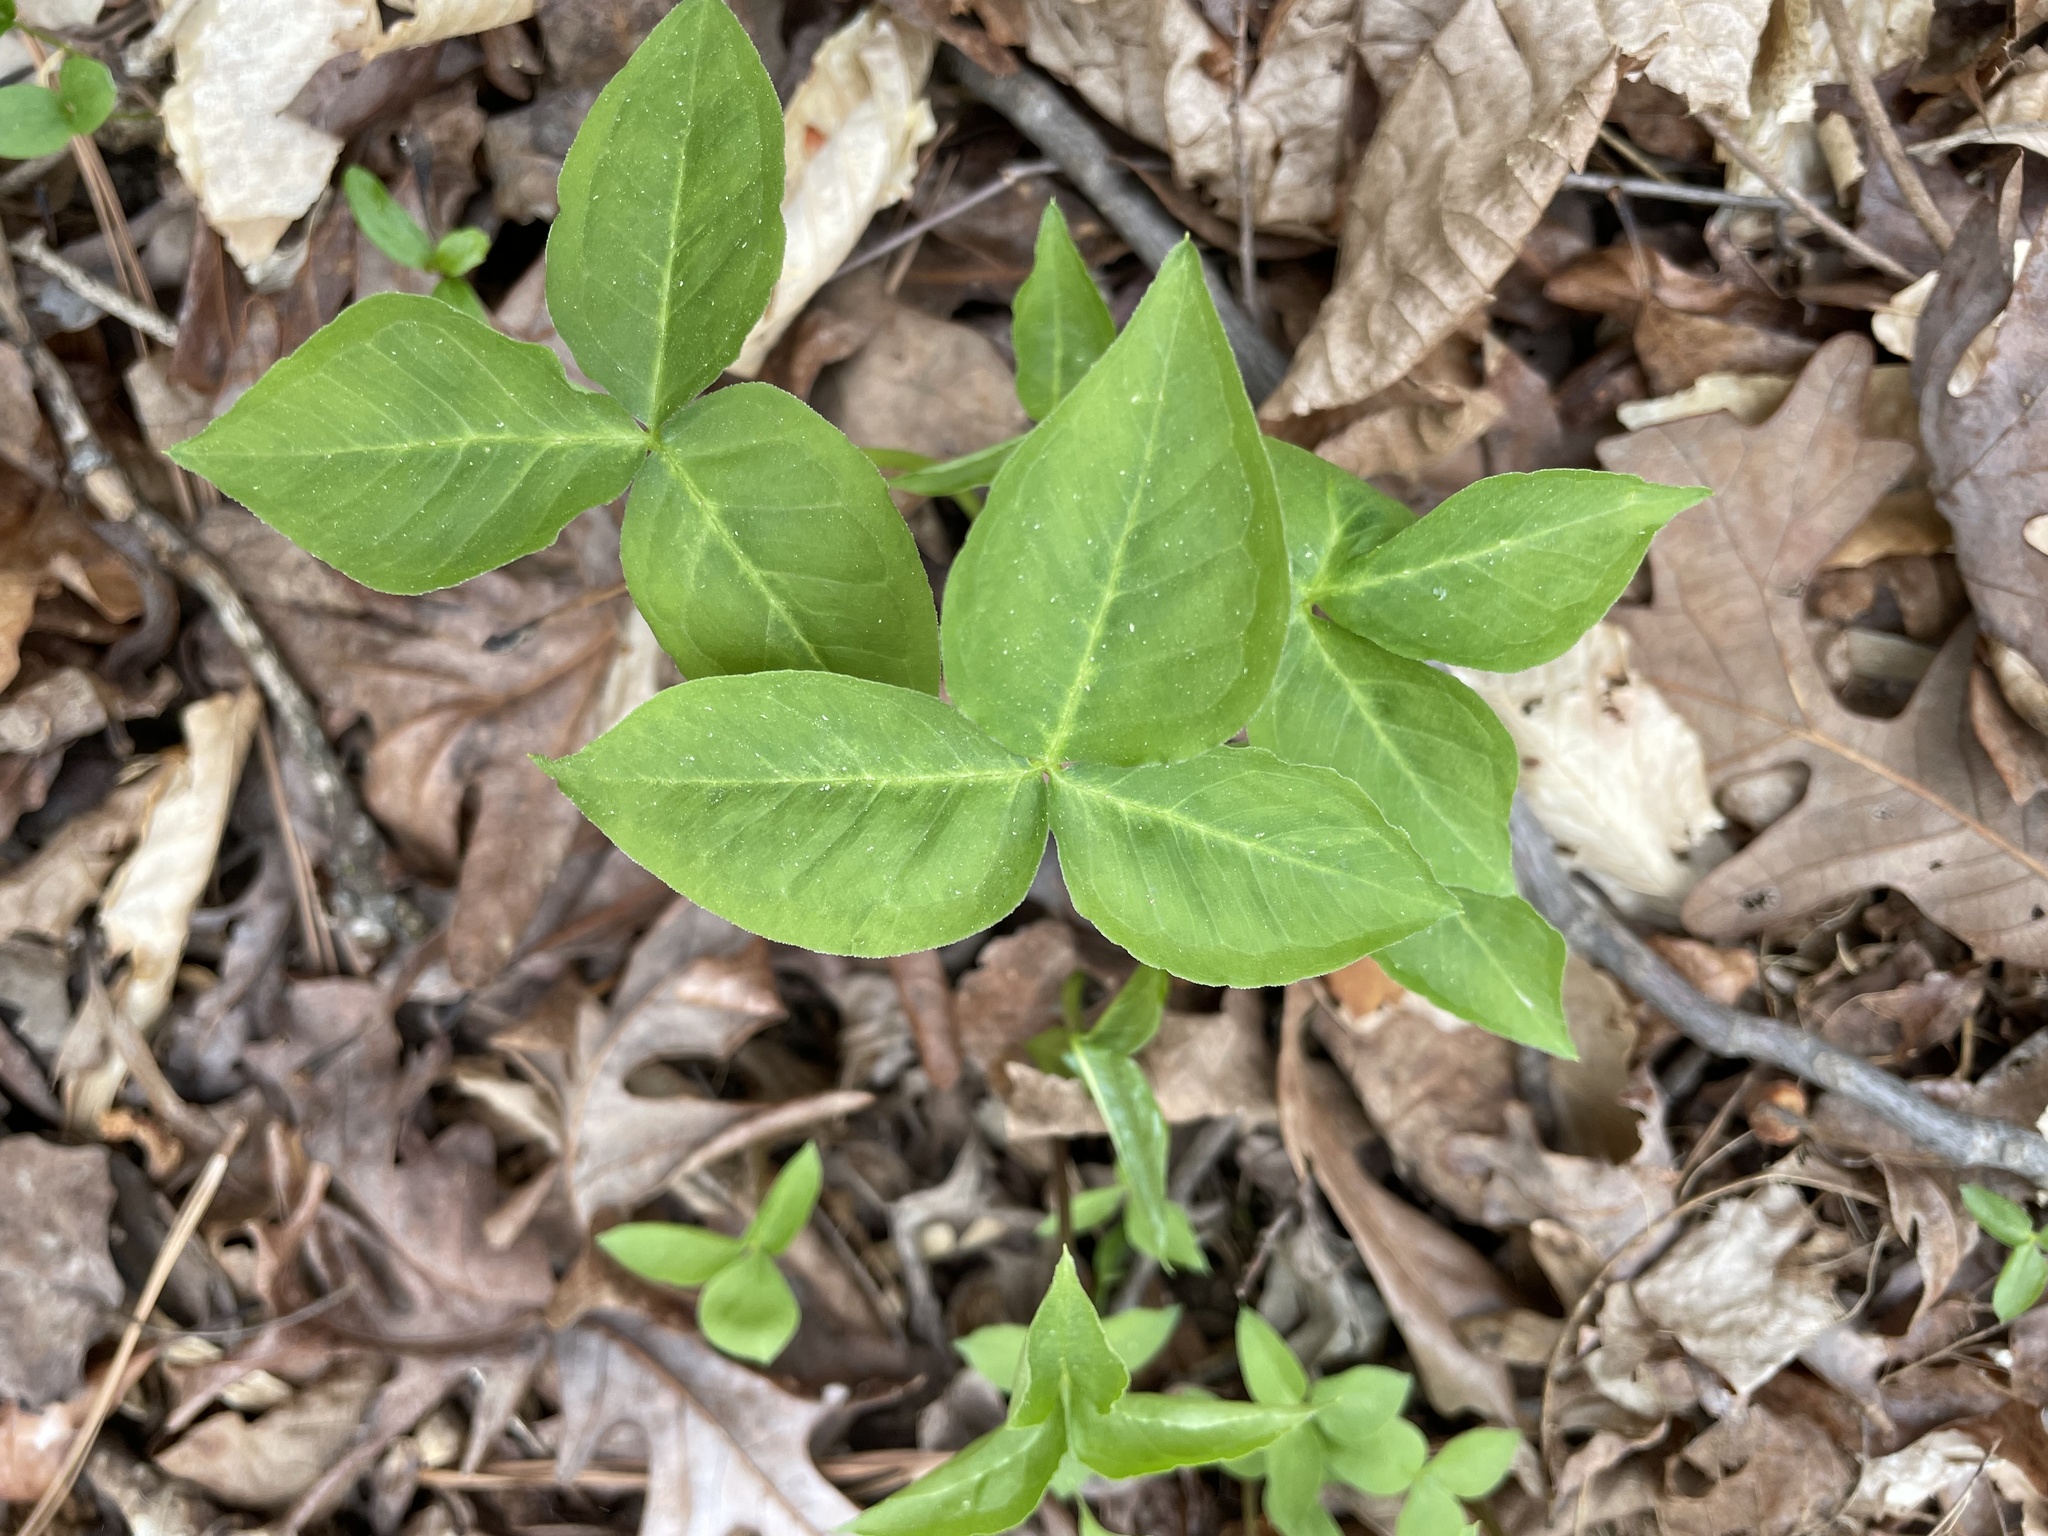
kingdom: Plantae
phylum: Tracheophyta
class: Liliopsida
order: Alismatales
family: Araceae
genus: Arisaema
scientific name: Arisaema triphyllum
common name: Jack-in-the-pulpit
